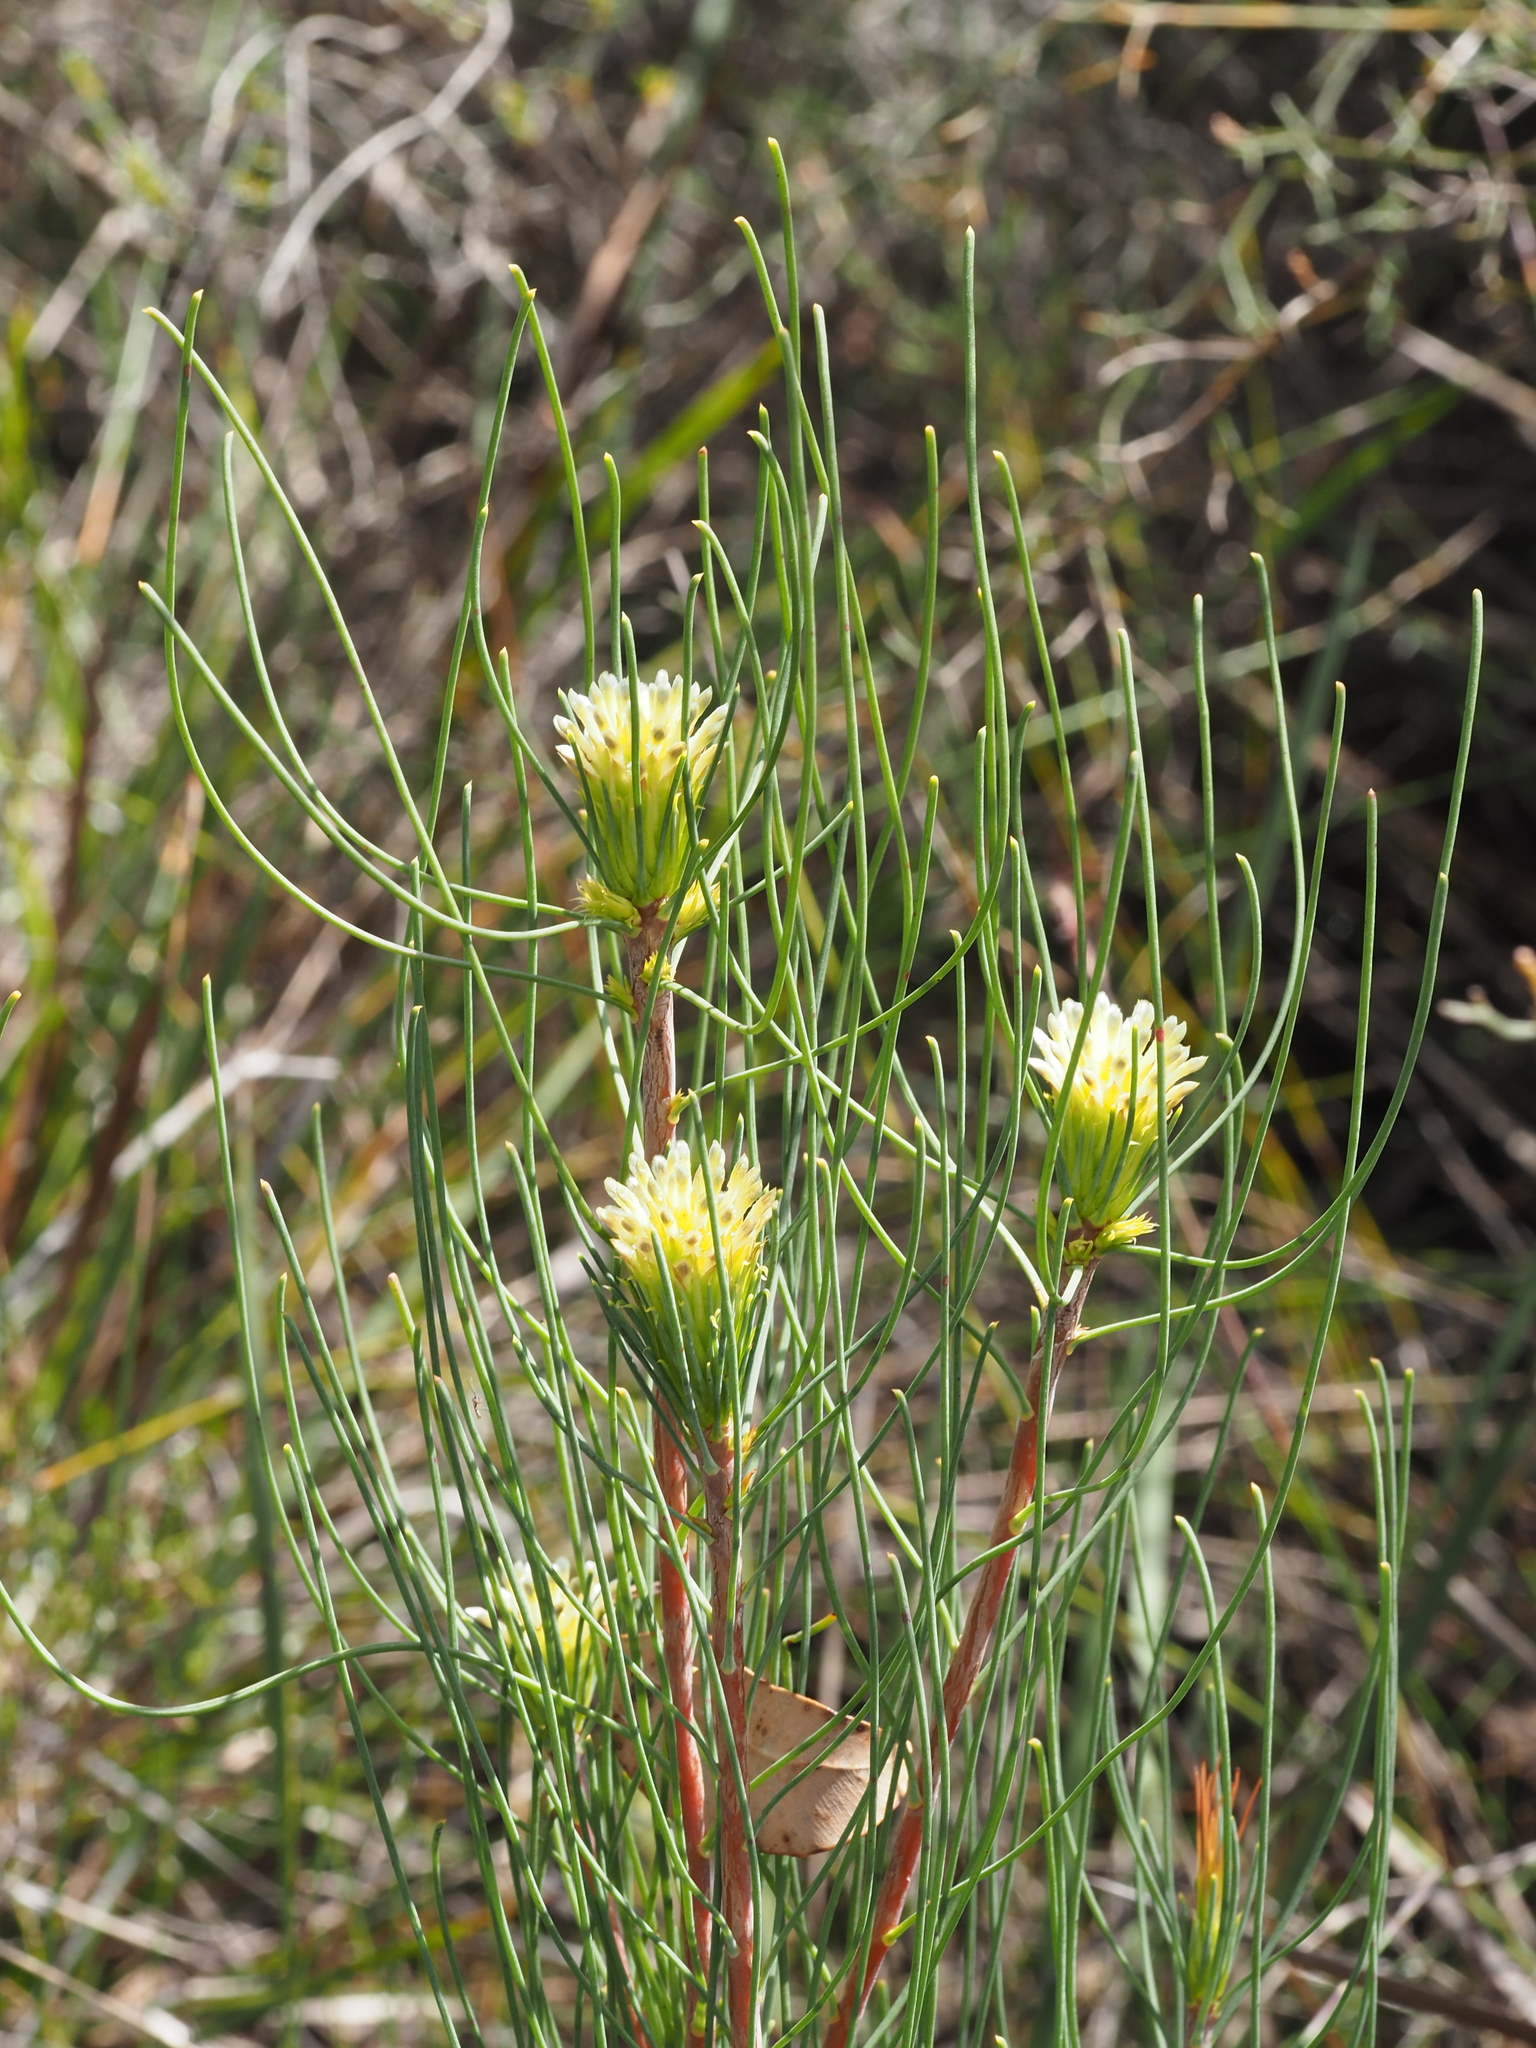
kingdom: Plantae
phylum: Tracheophyta
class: Magnoliopsida
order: Proteales
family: Proteaceae
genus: Petrophile
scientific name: Petrophile acicularis
